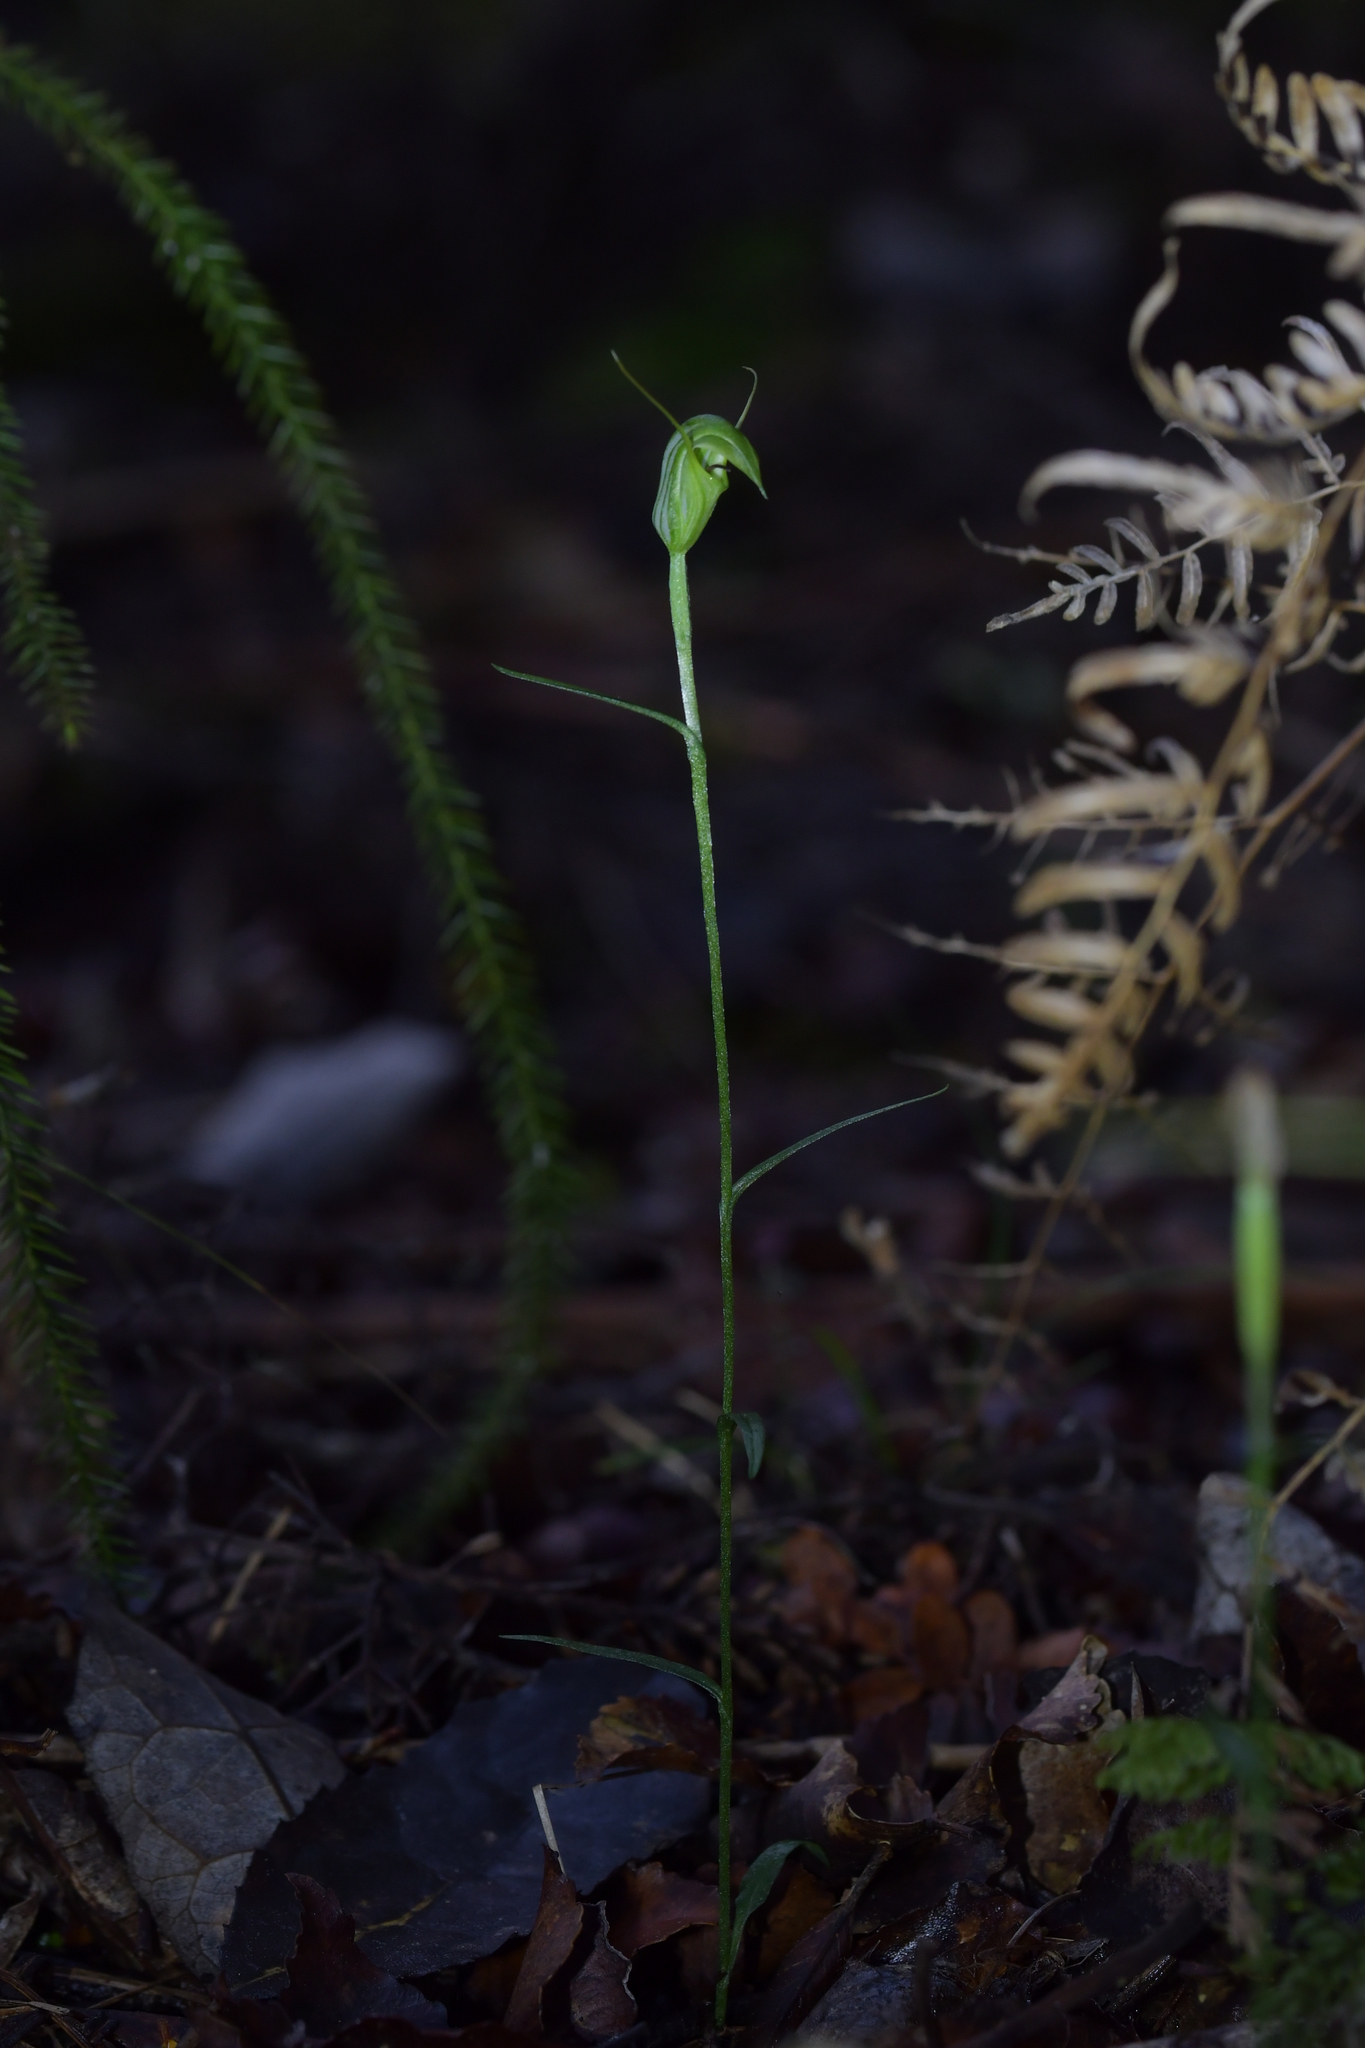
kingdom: Plantae
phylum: Tracheophyta
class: Liliopsida
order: Asparagales
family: Orchidaceae
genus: Pterostylis
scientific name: Pterostylis trullifolia
